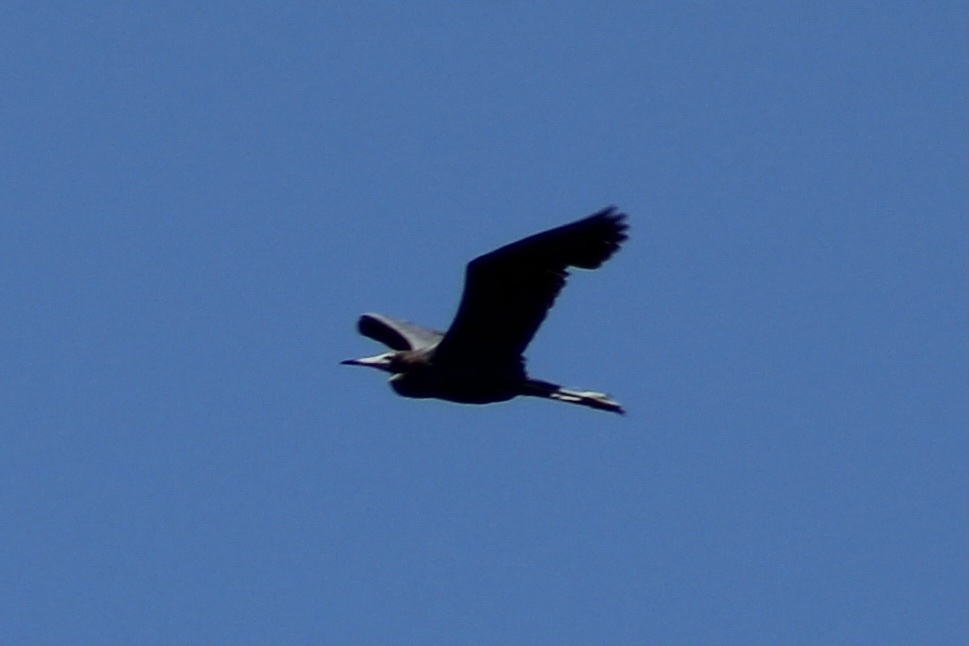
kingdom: Animalia
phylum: Chordata
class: Aves
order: Pelecaniformes
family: Ardeidae
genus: Egretta
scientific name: Egretta caerulea
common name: Little blue heron
